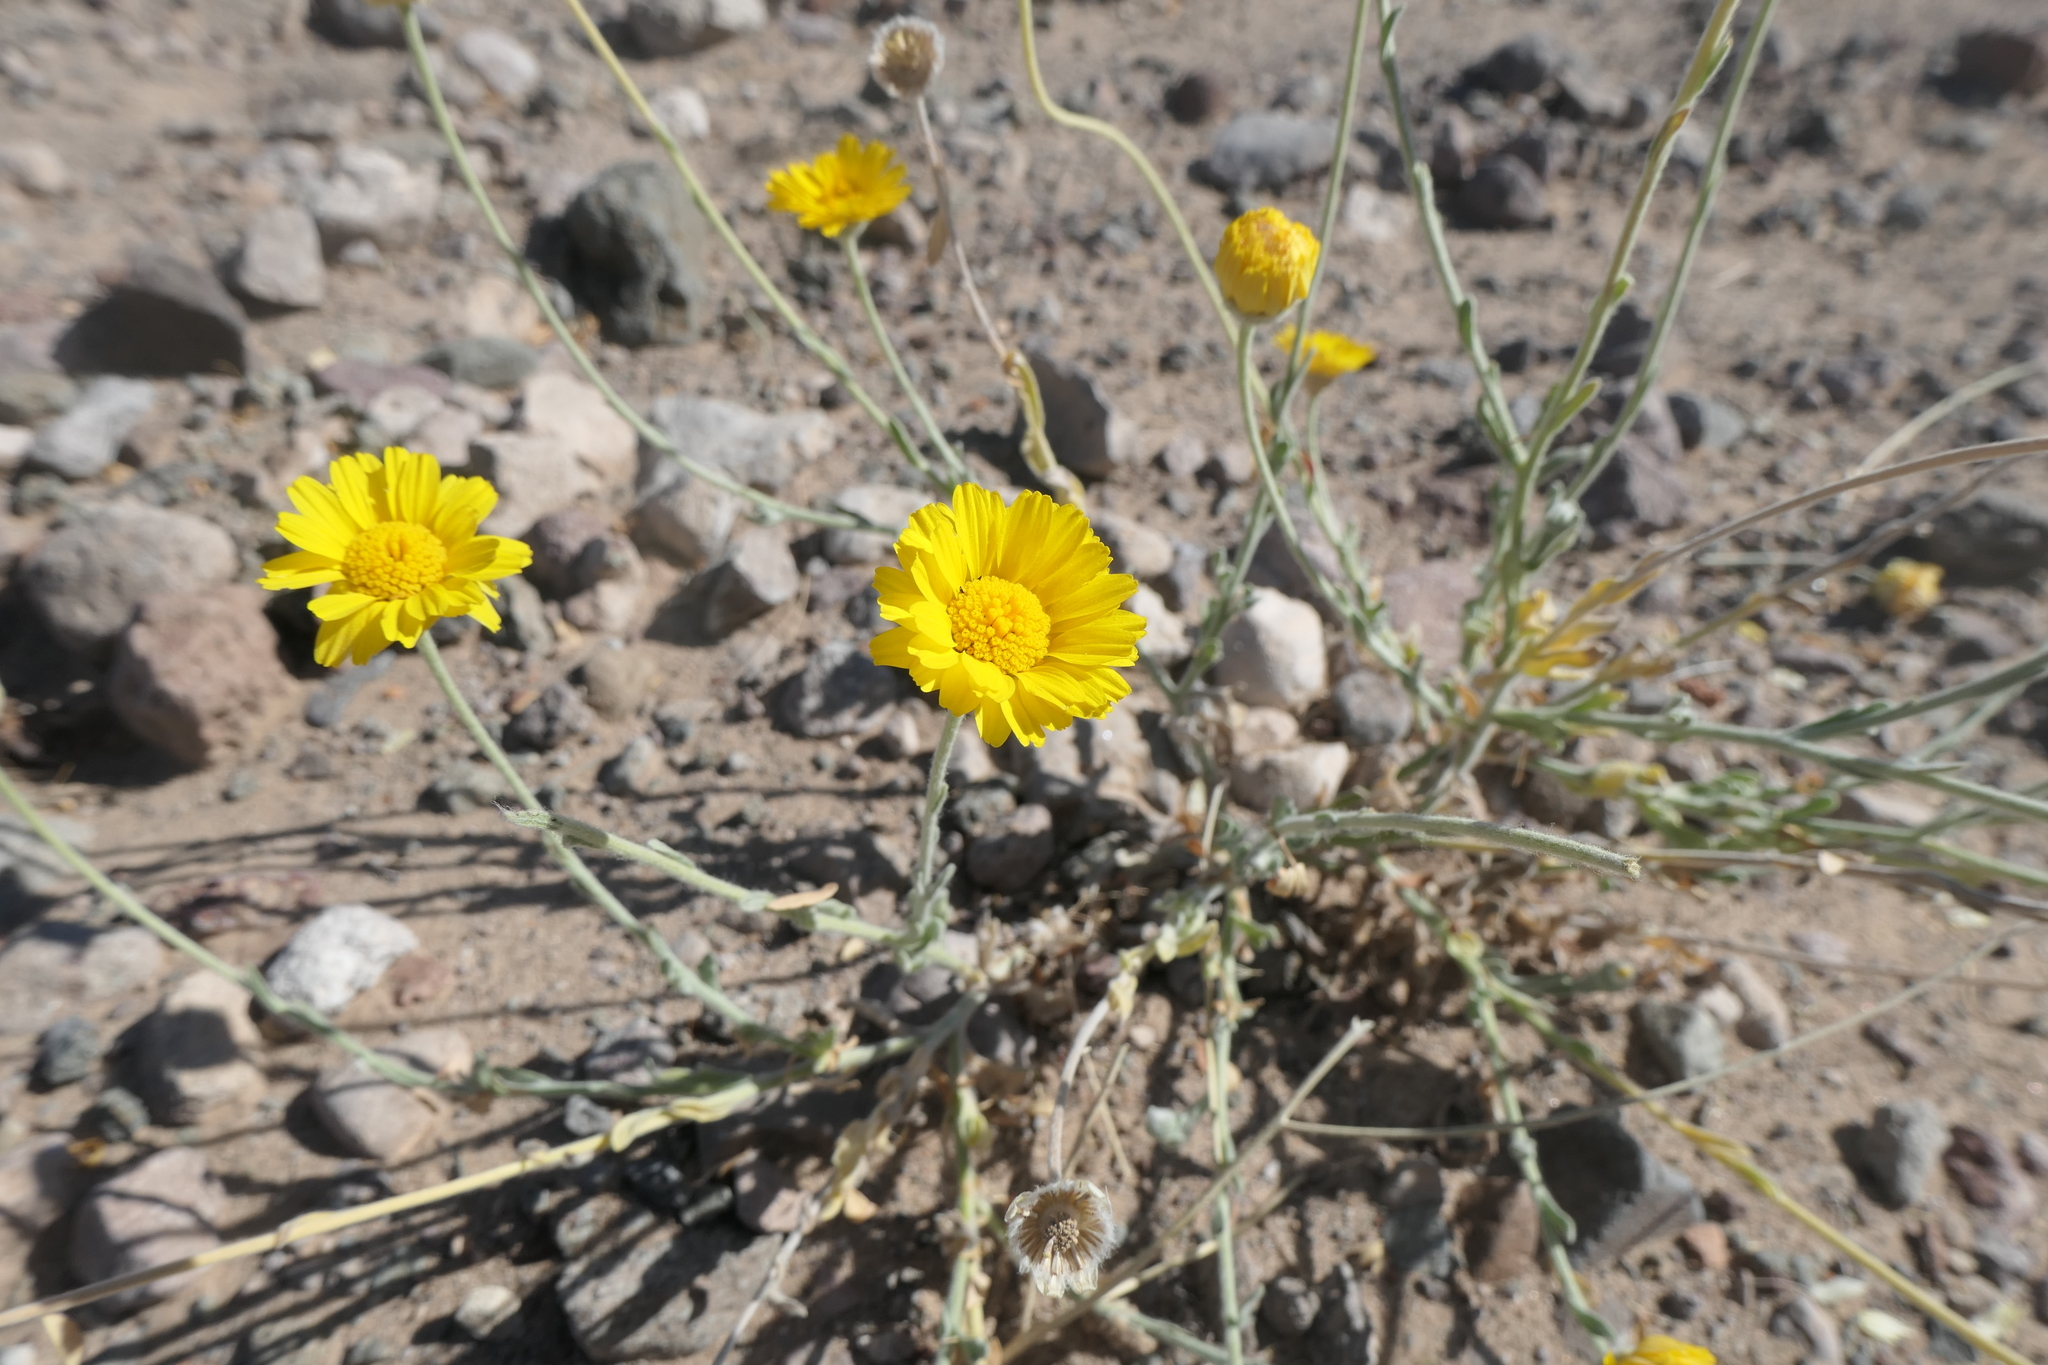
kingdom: Plantae
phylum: Tracheophyta
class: Magnoliopsida
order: Asterales
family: Asteraceae
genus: Baileya
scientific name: Baileya multiradiata
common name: Desert-marigold
